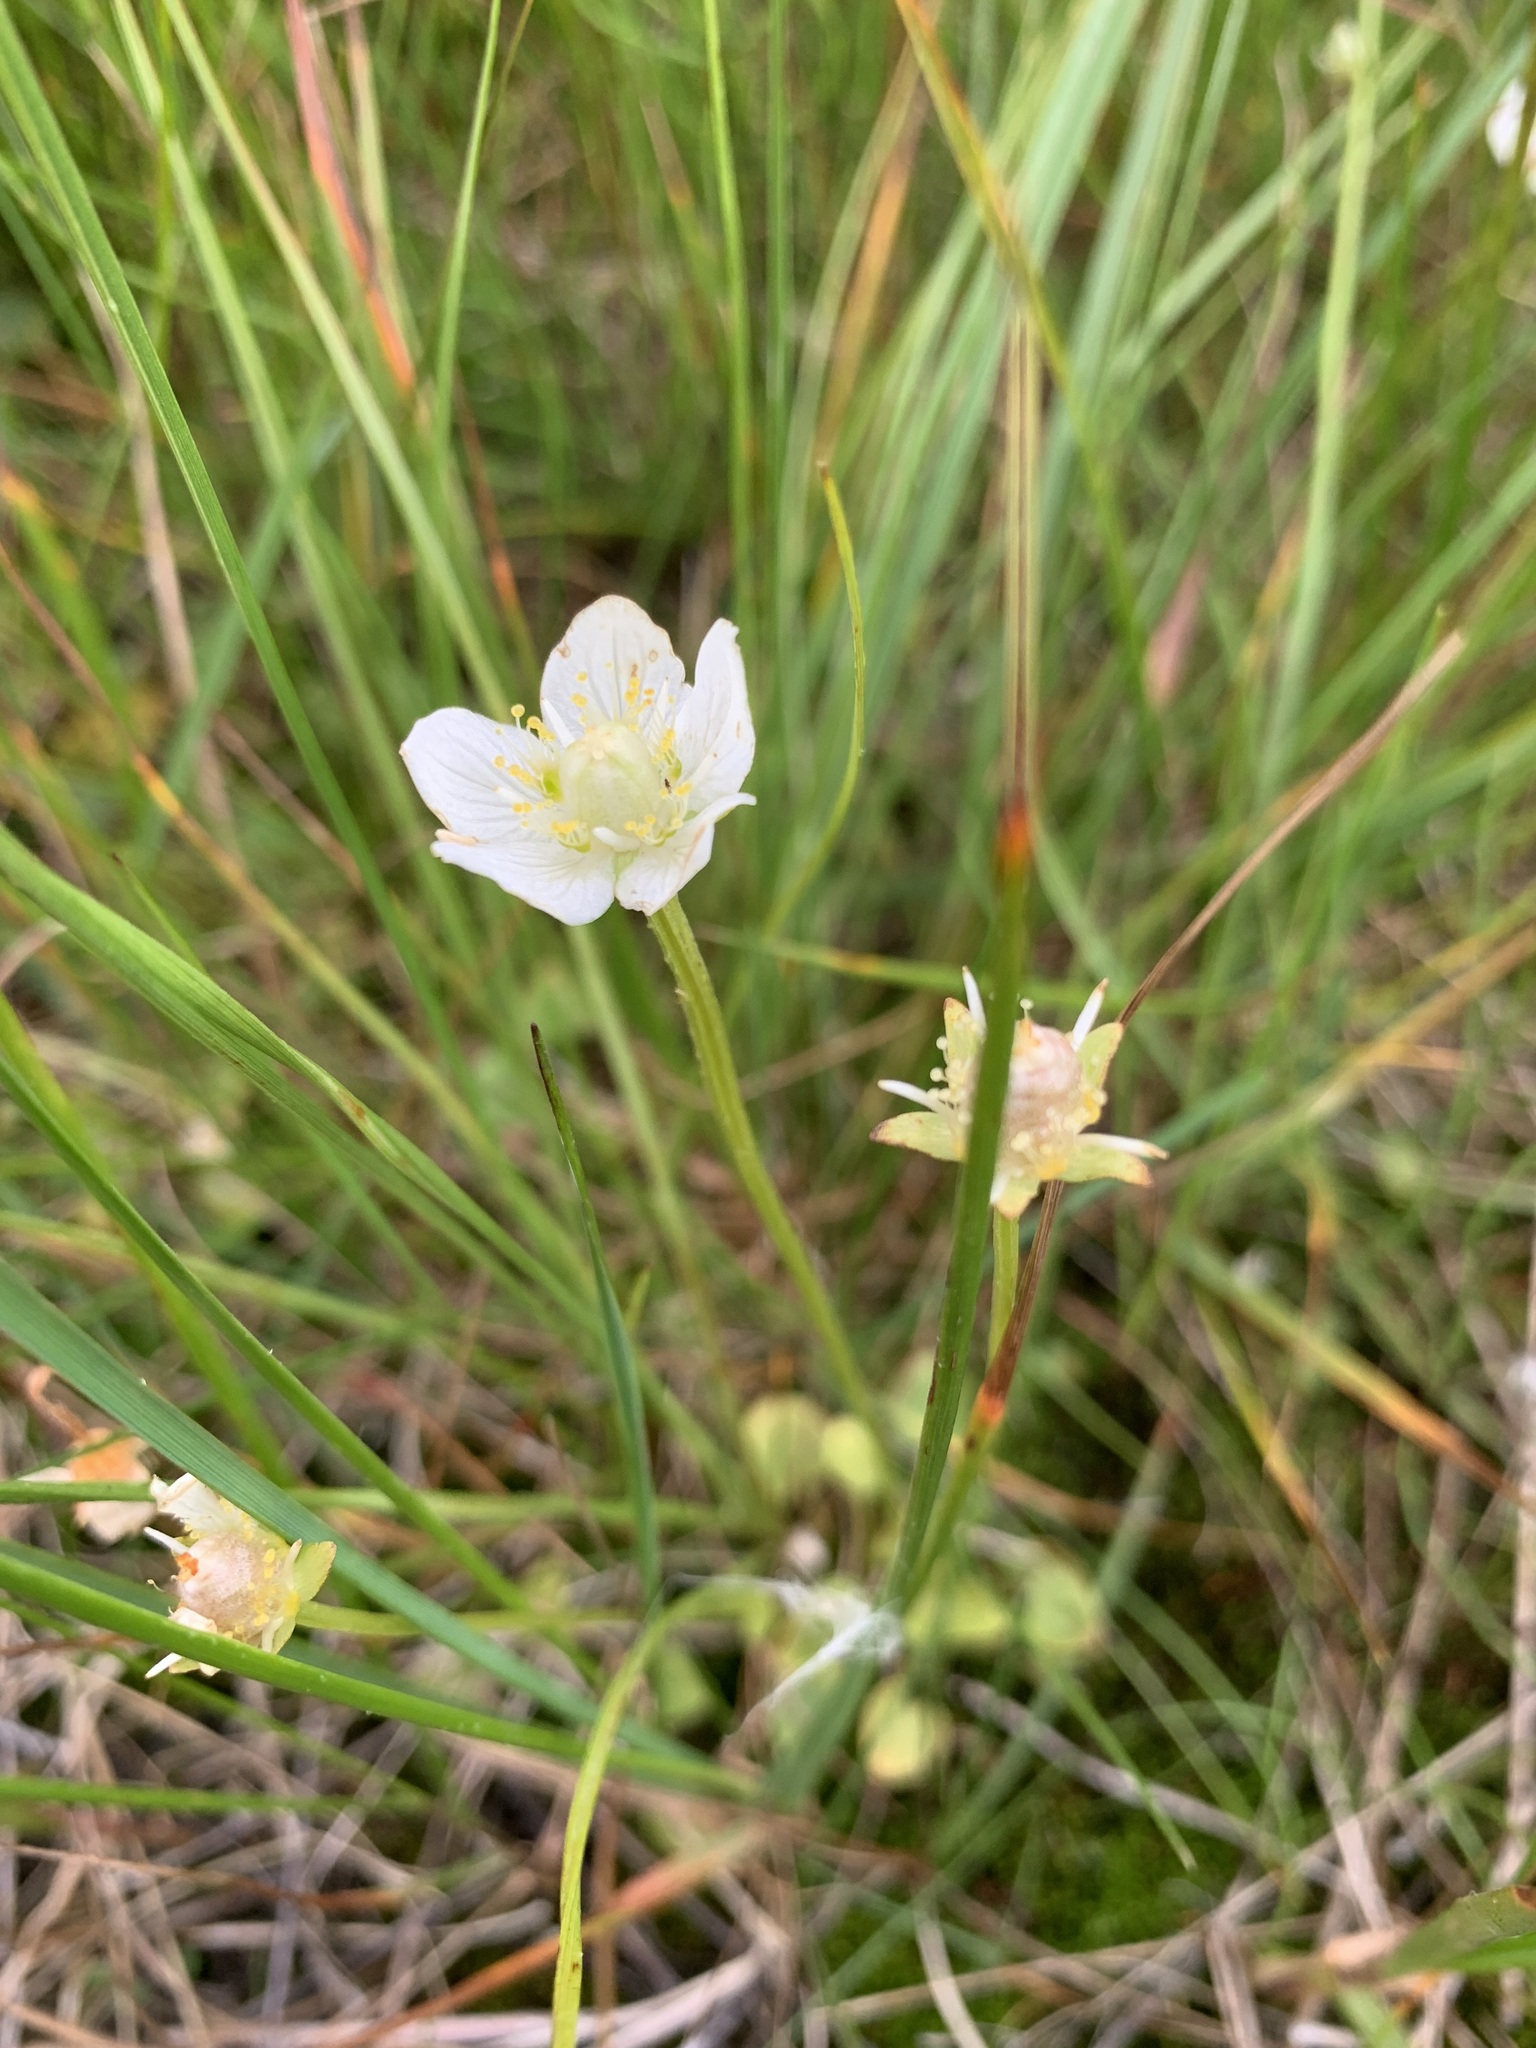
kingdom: Plantae
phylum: Tracheophyta
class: Magnoliopsida
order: Celastrales
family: Parnassiaceae
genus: Parnassia
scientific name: Parnassia palustris
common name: Grass-of-parnassus
